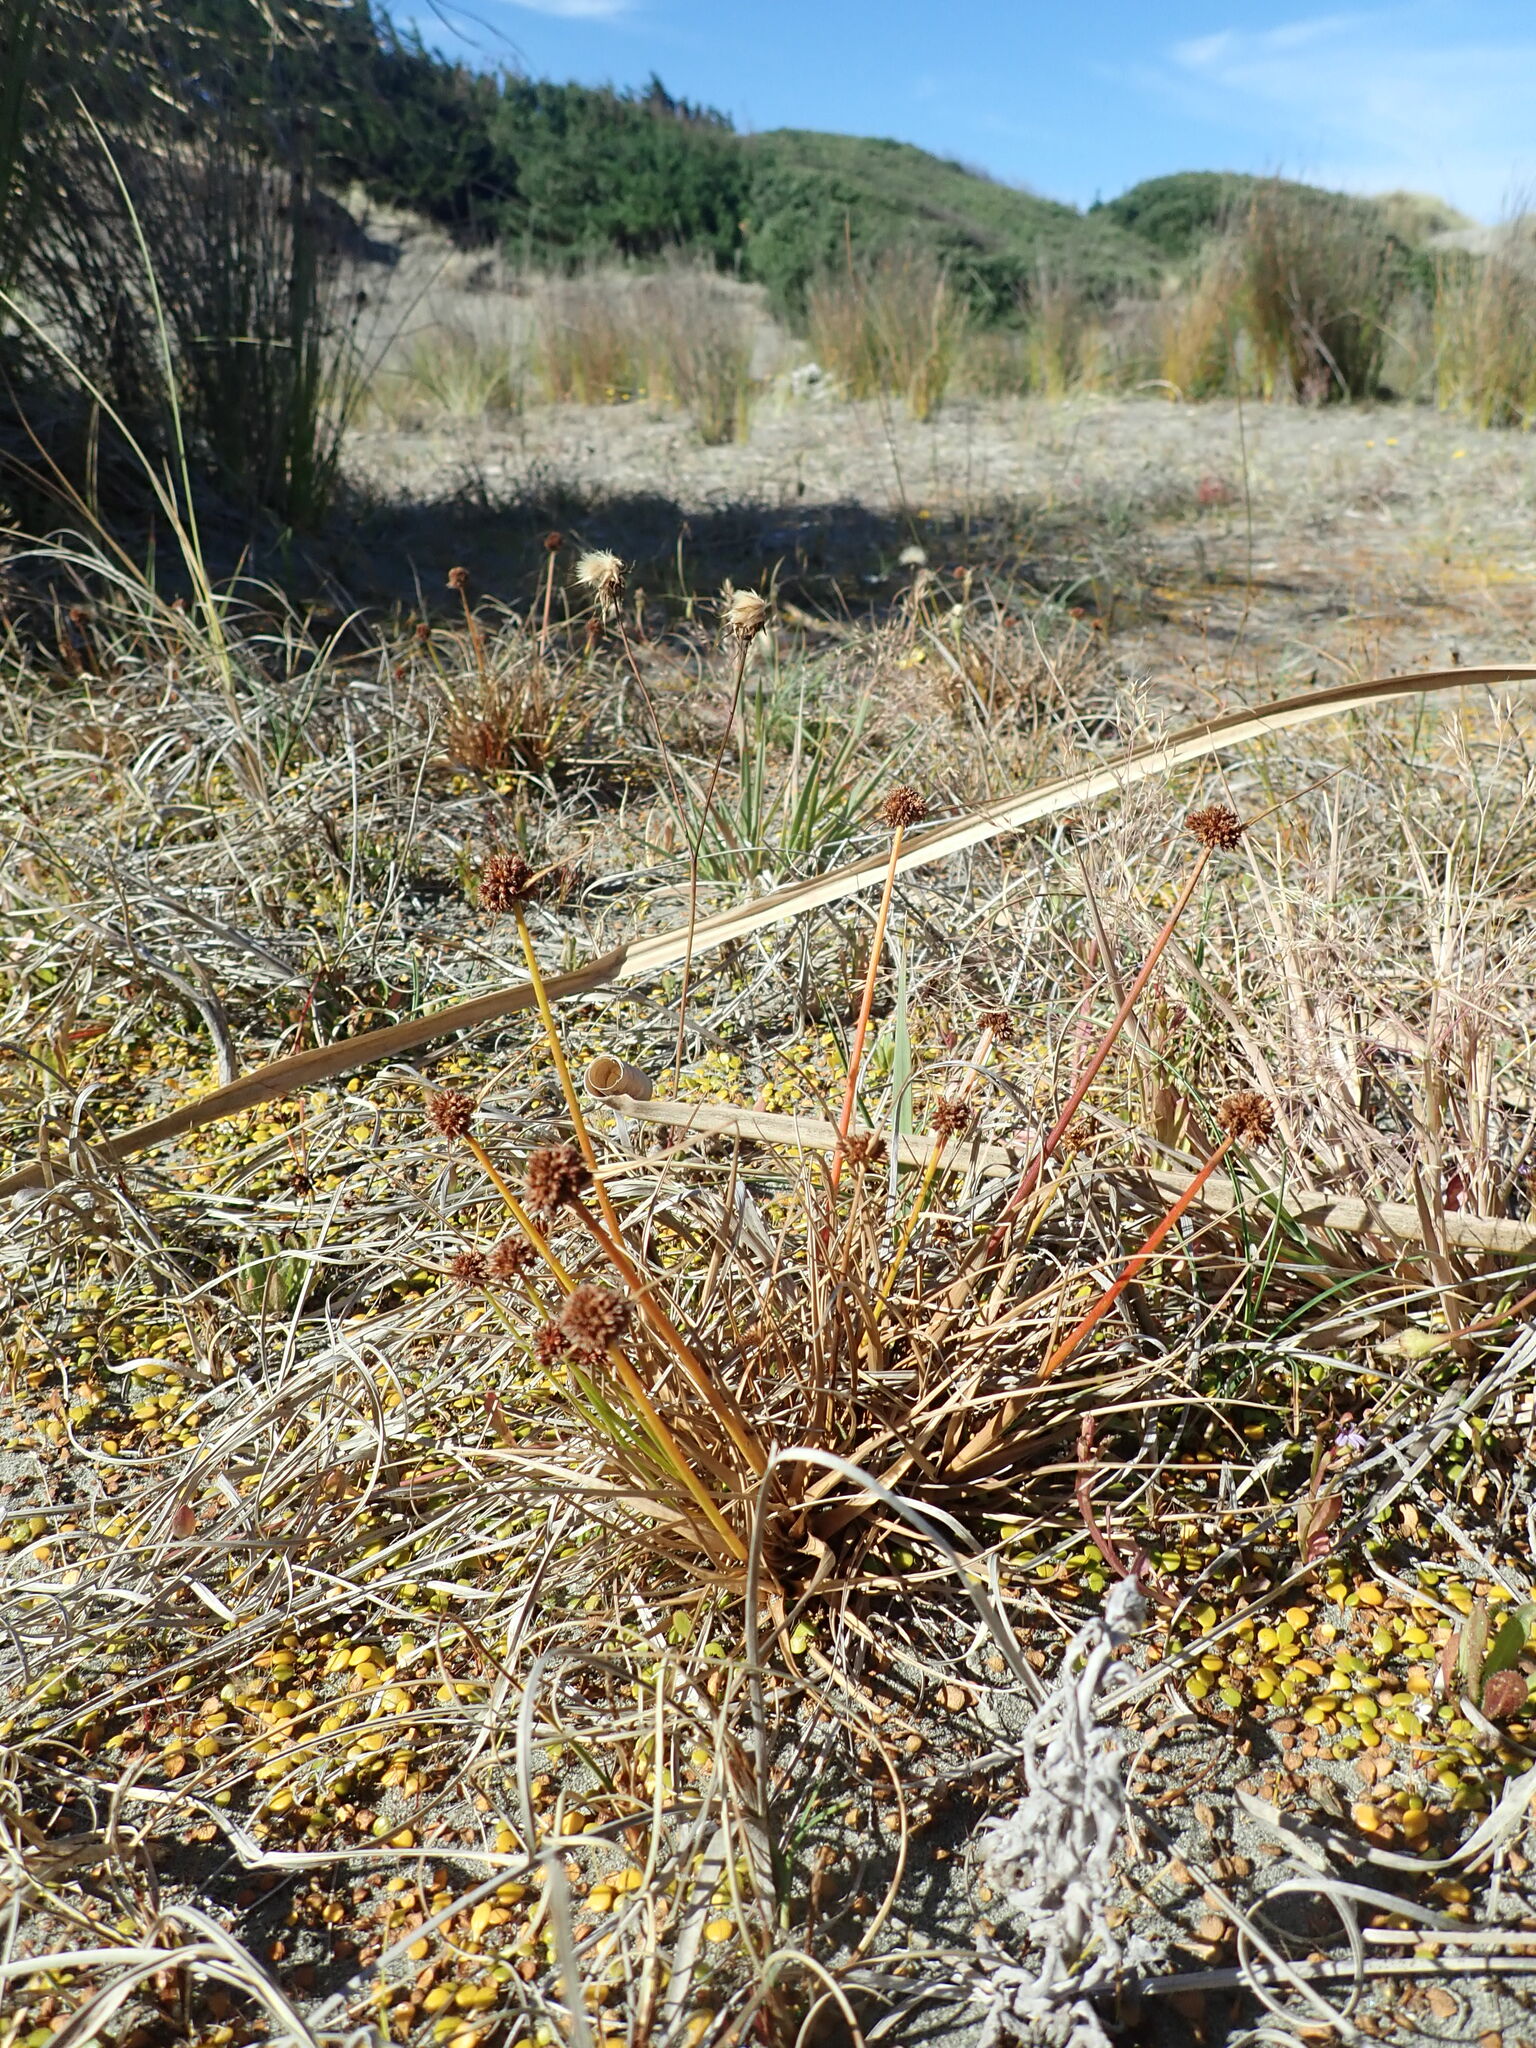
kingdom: Plantae
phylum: Tracheophyta
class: Liliopsida
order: Poales
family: Juncaceae
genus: Juncus
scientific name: Juncus caespiticius
